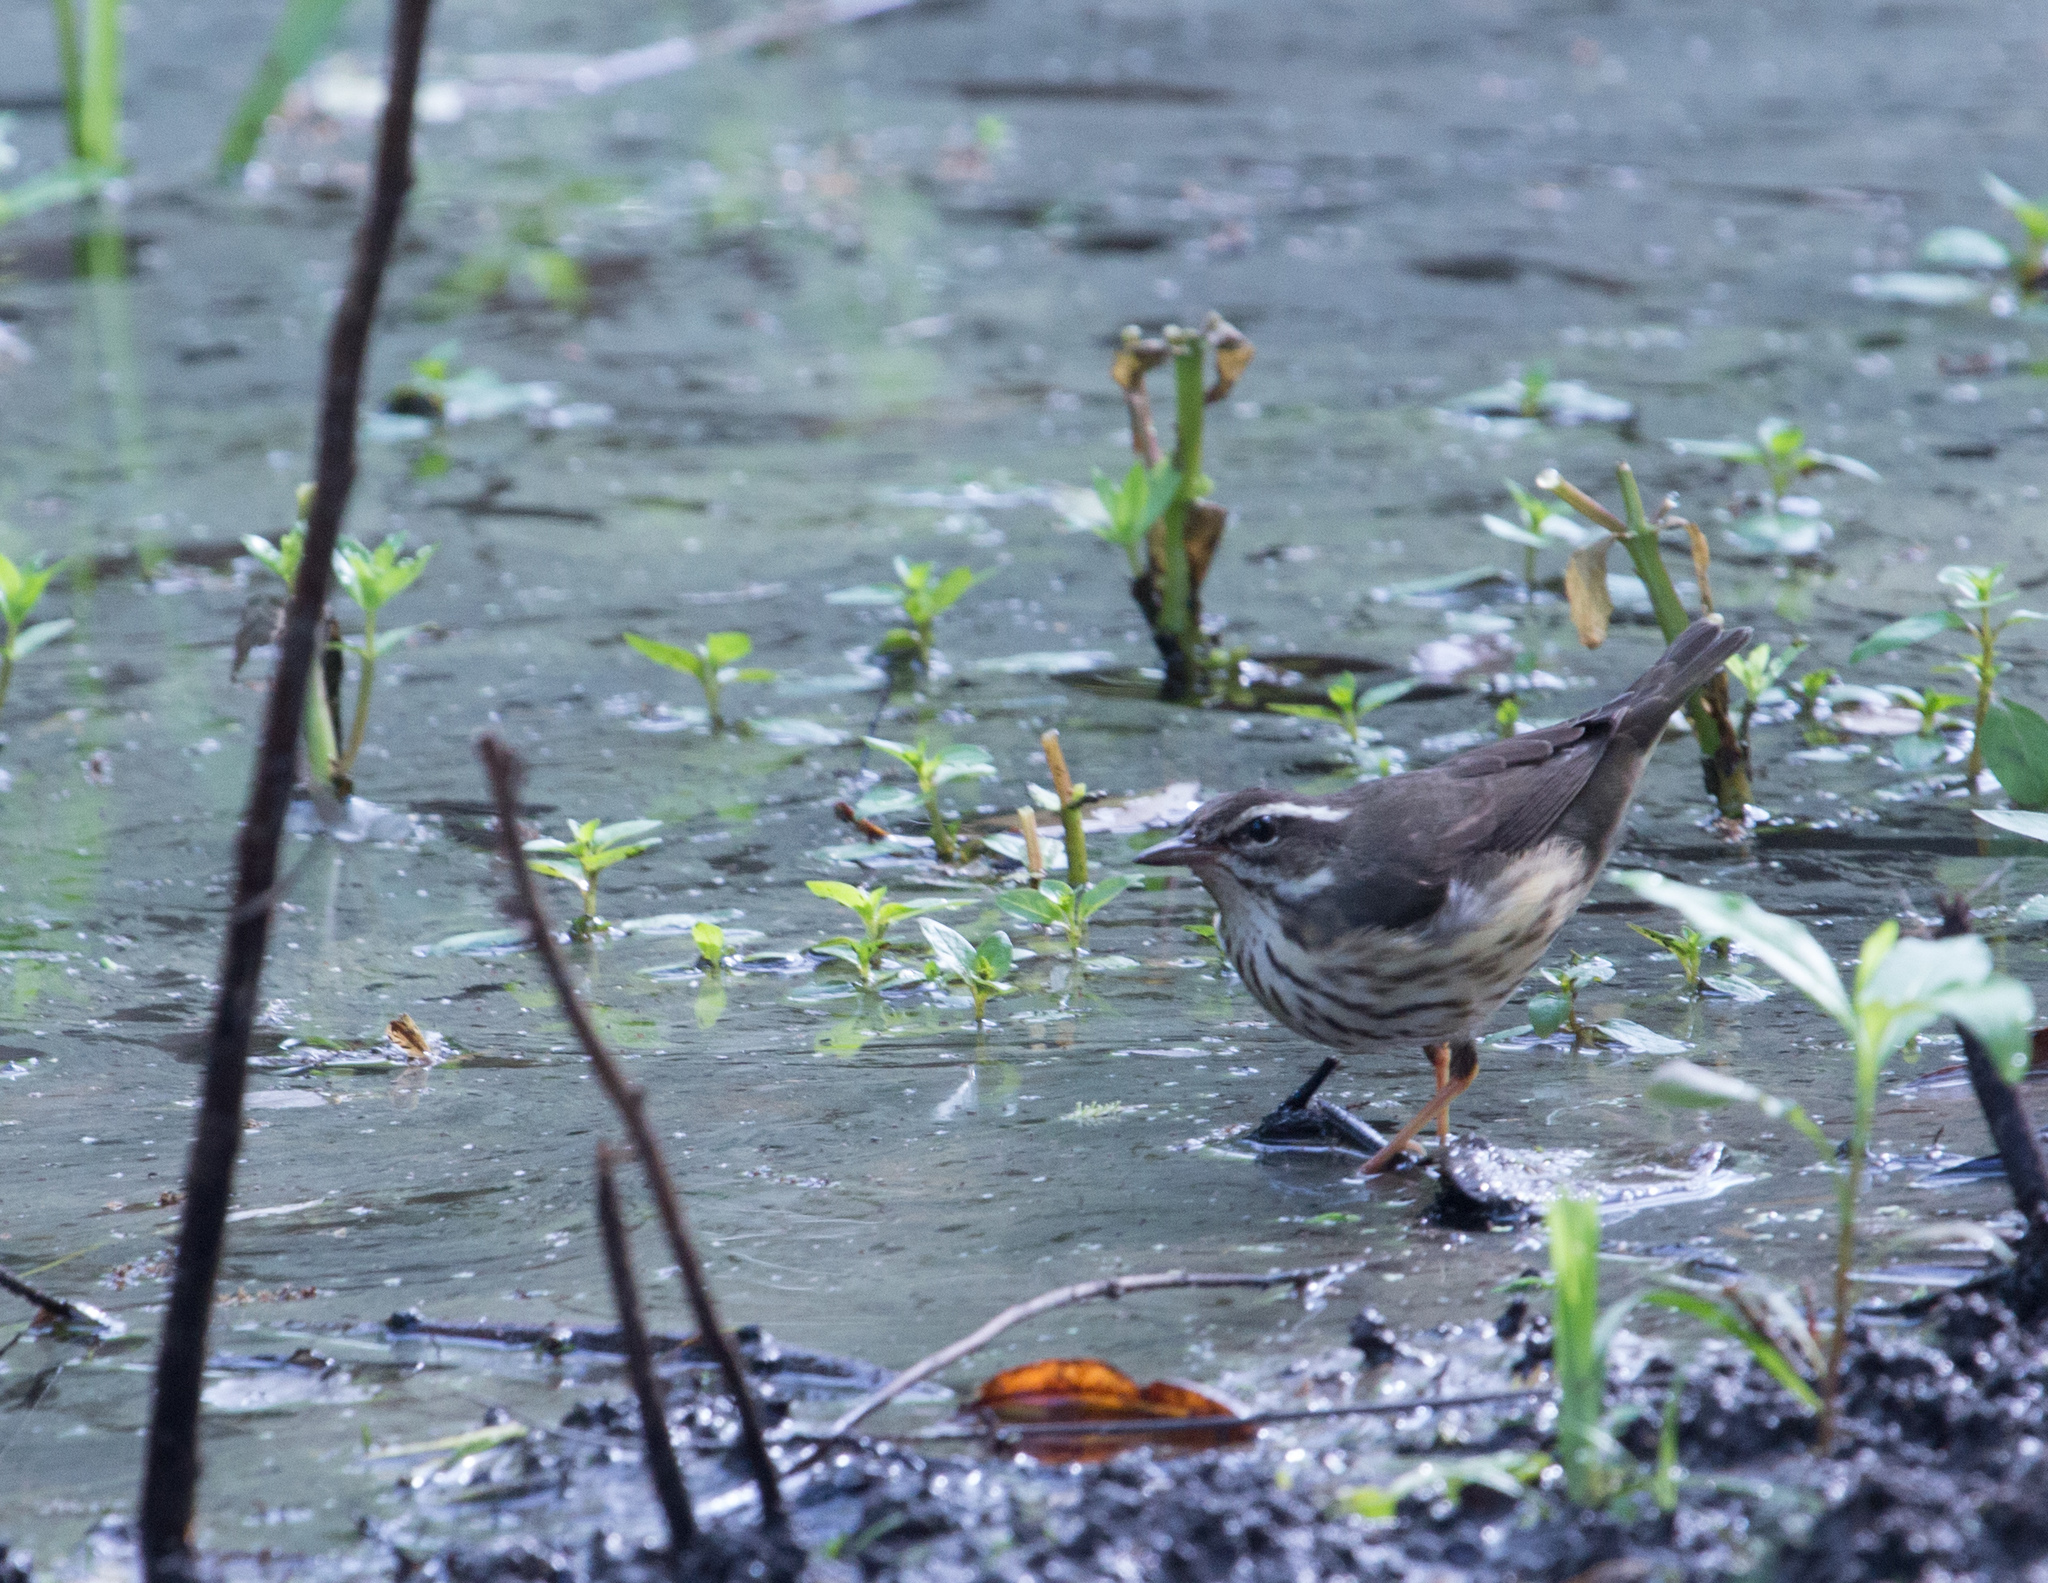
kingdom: Animalia
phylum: Chordata
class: Aves
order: Passeriformes
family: Parulidae
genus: Parkesia
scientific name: Parkesia motacilla
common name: Louisiana waterthrush
